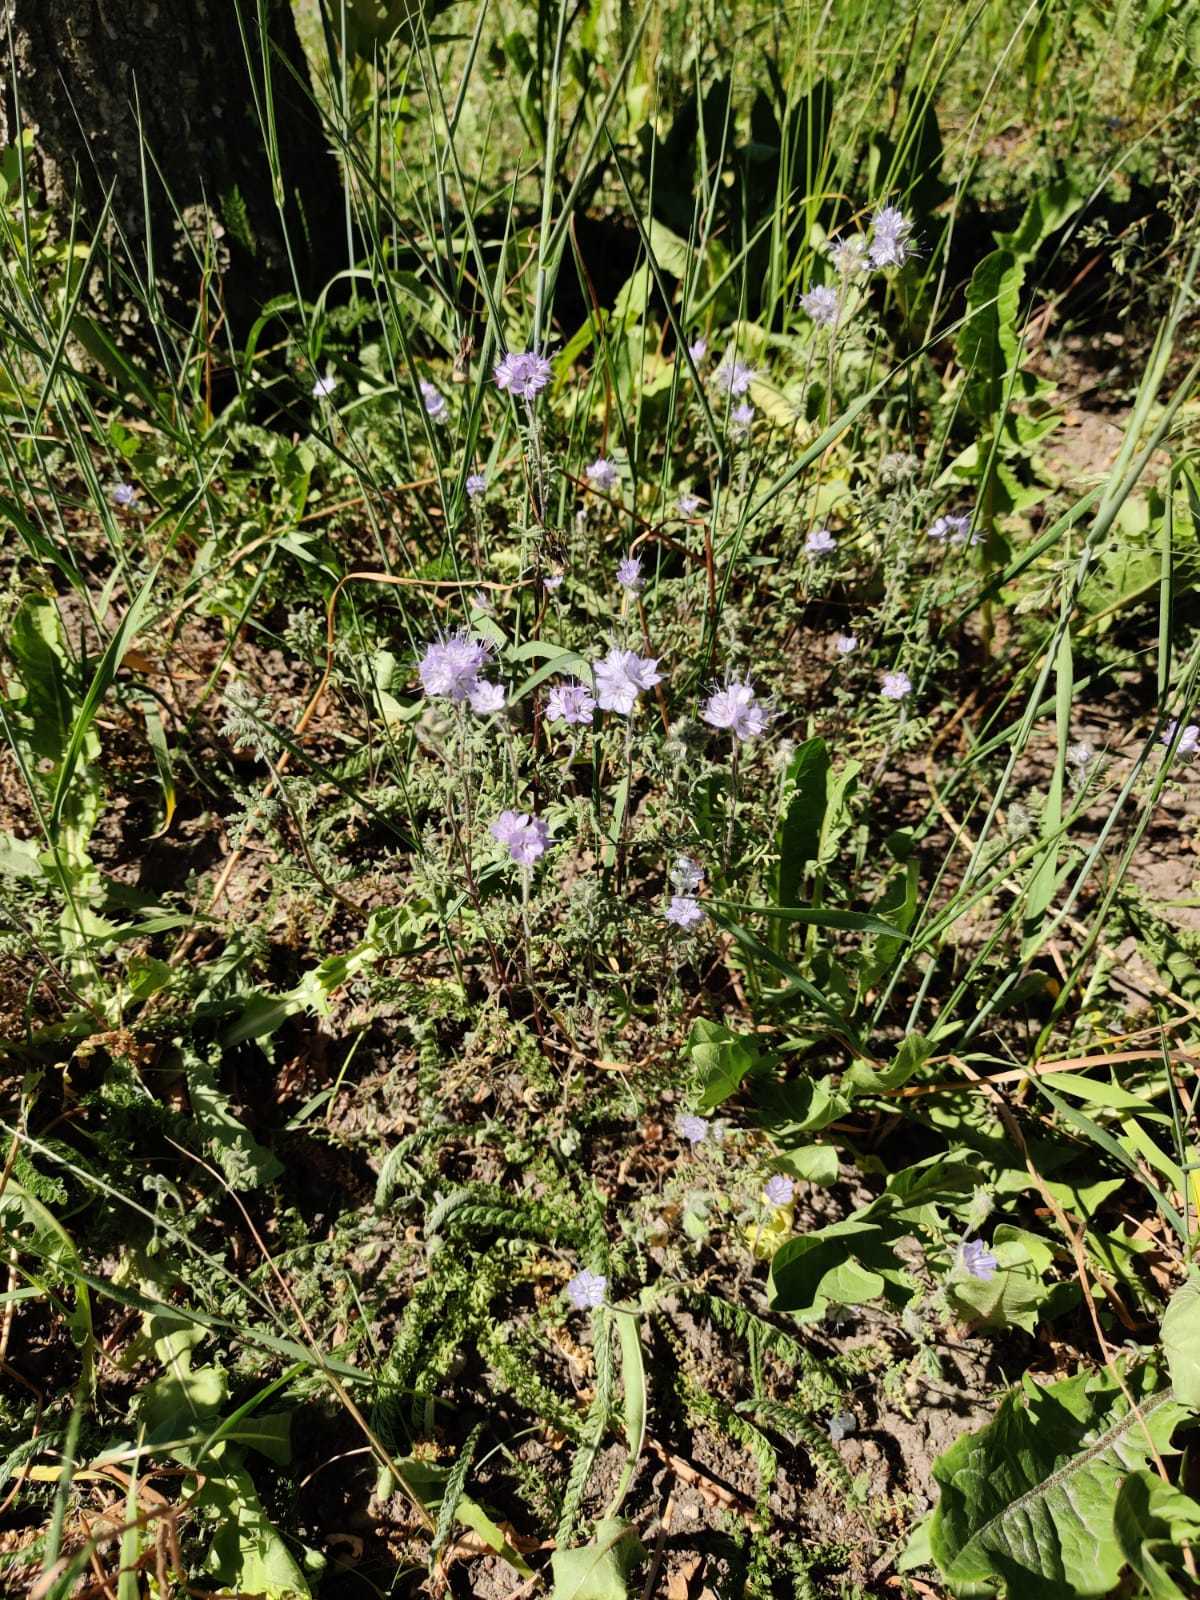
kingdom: Plantae
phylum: Tracheophyta
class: Magnoliopsida
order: Boraginales
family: Hydrophyllaceae
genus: Phacelia
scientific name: Phacelia tanacetifolia
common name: Phacelia
